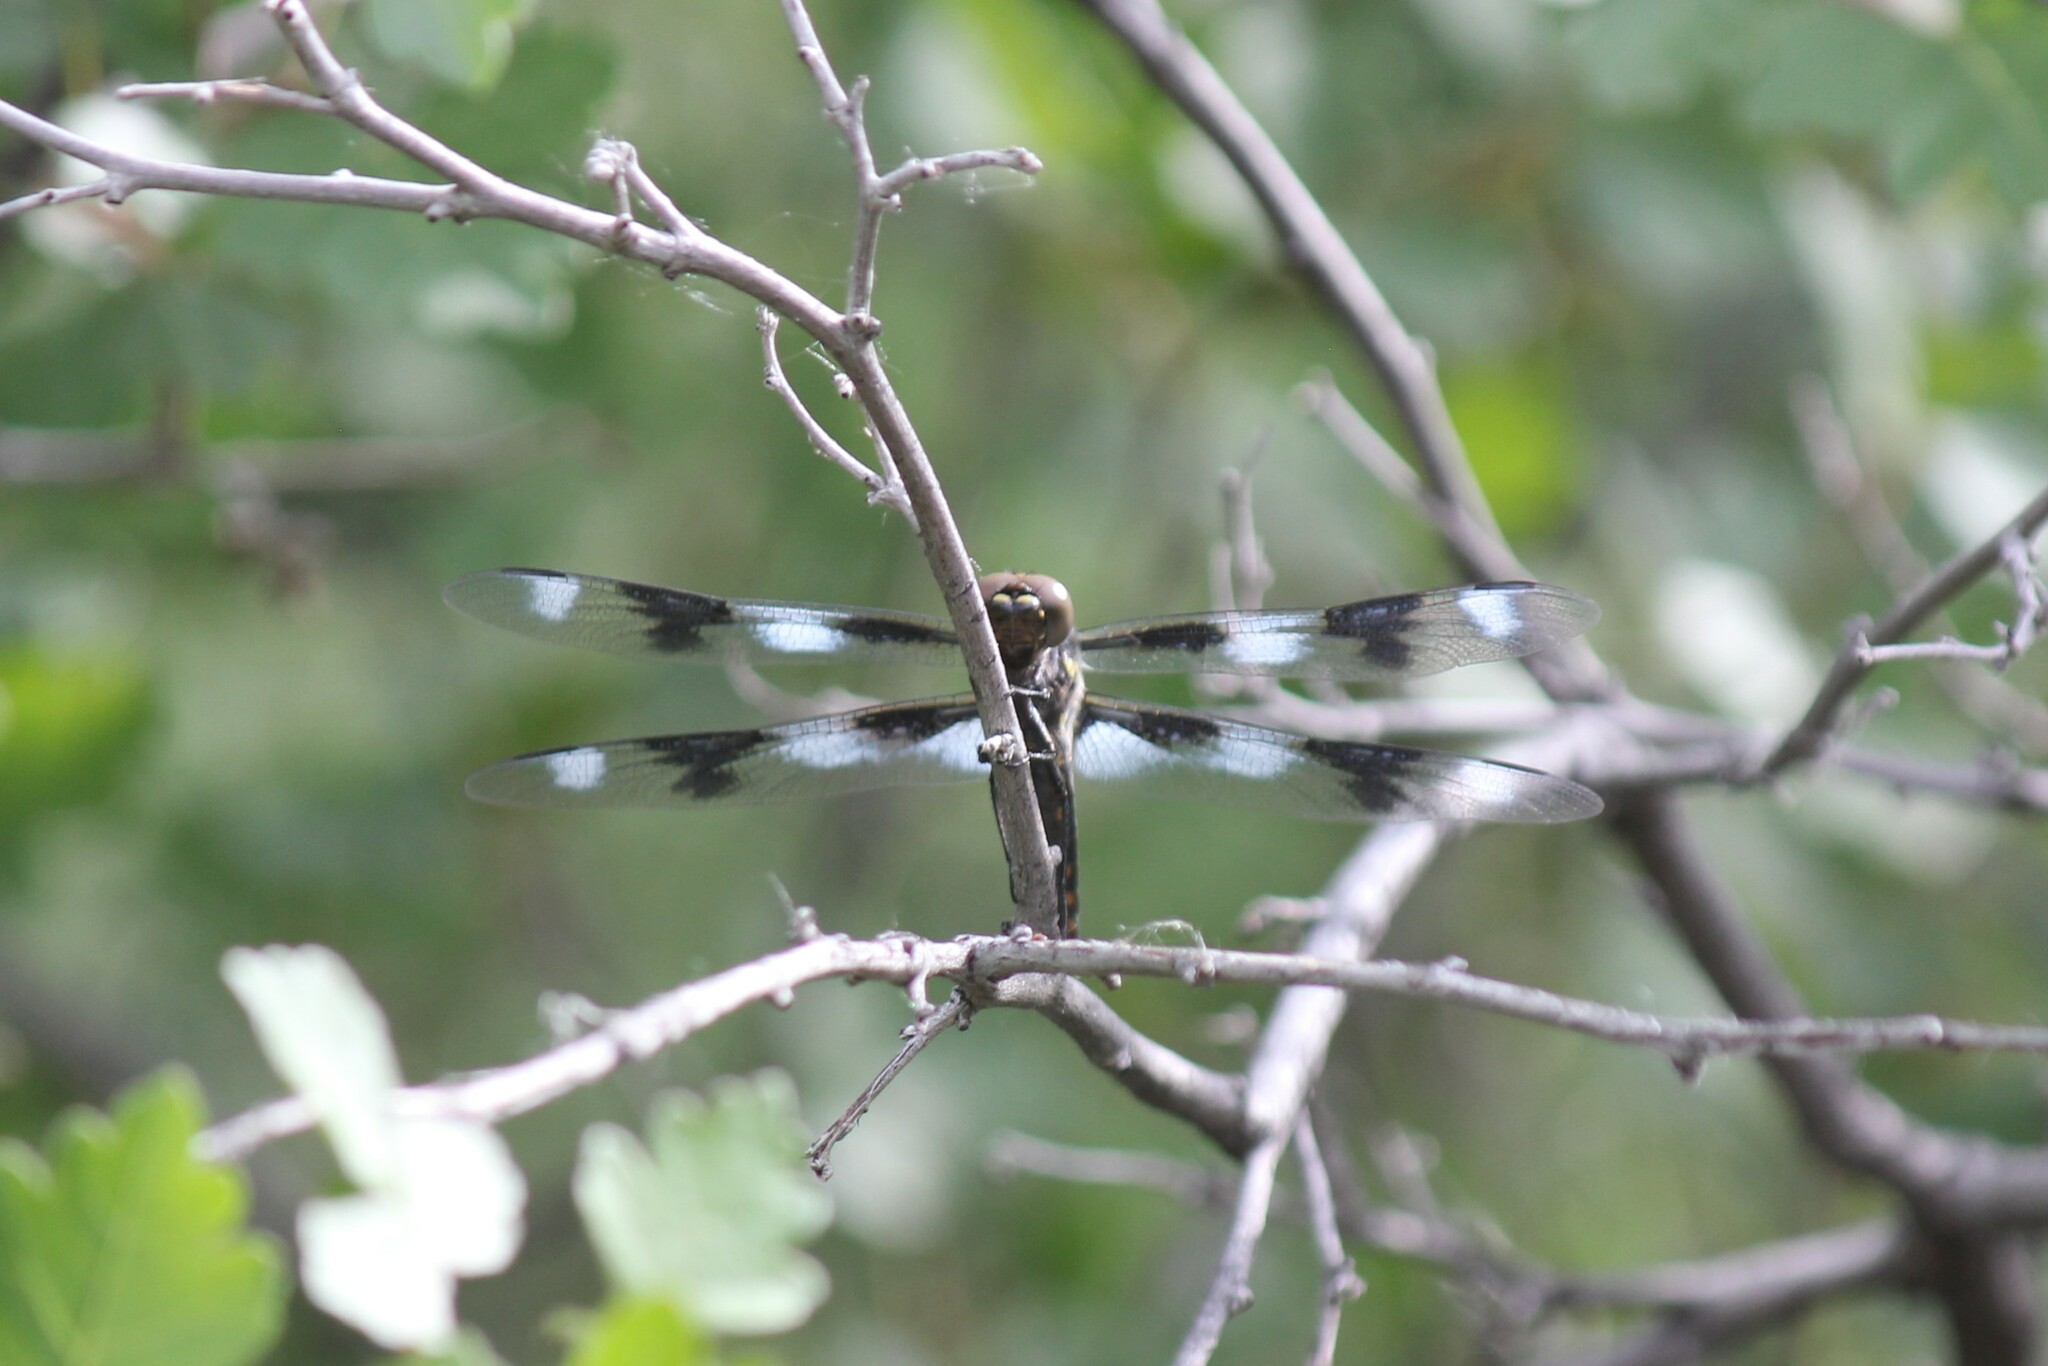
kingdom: Animalia
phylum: Arthropoda
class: Insecta
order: Odonata
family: Libellulidae
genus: Libellula
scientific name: Libellula forensis
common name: Eight-spotted skimmer
